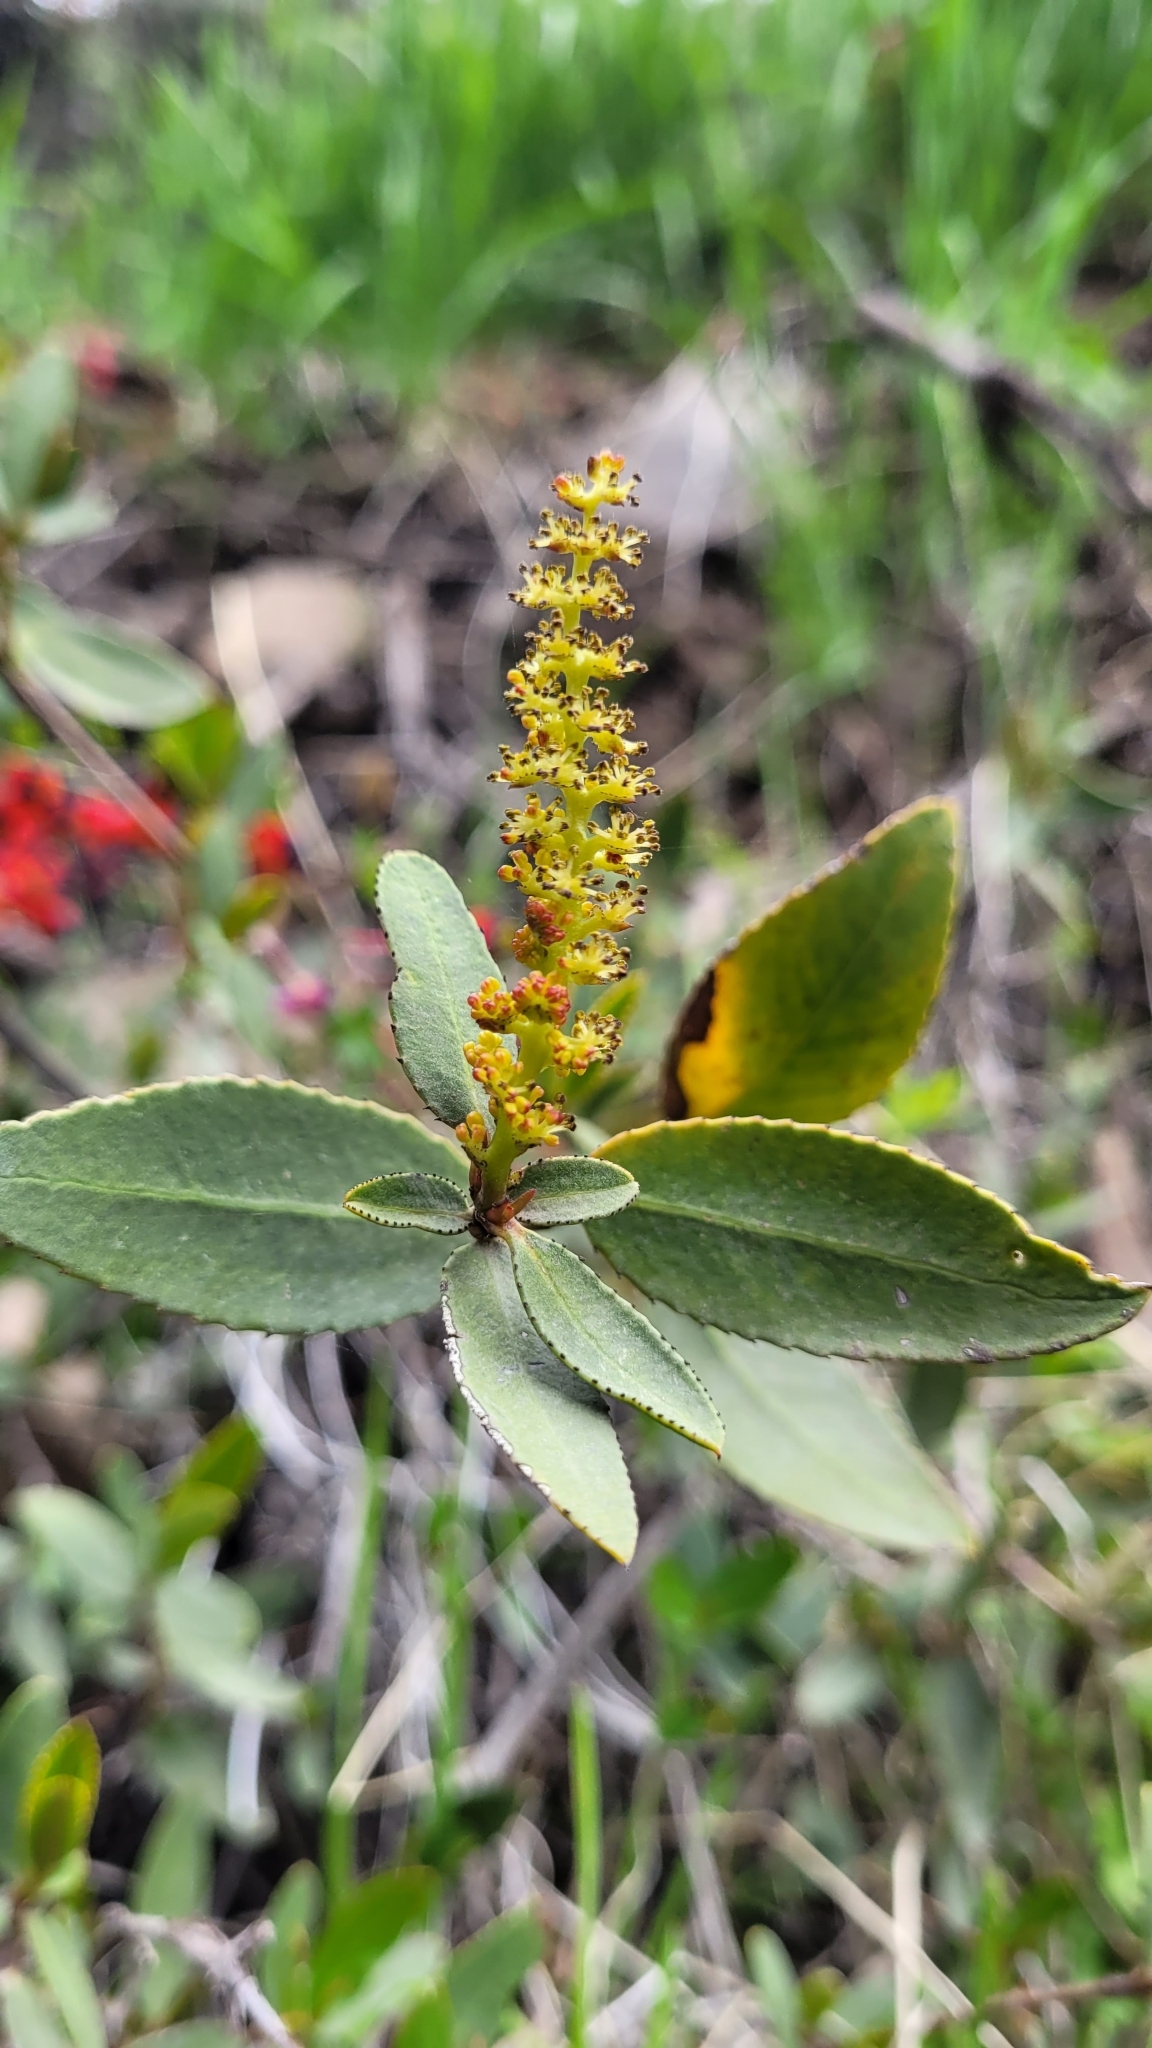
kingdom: Plantae
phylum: Tracheophyta
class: Magnoliopsida
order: Malpighiales
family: Euphorbiaceae
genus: Colliguaja
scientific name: Colliguaja odorifera
